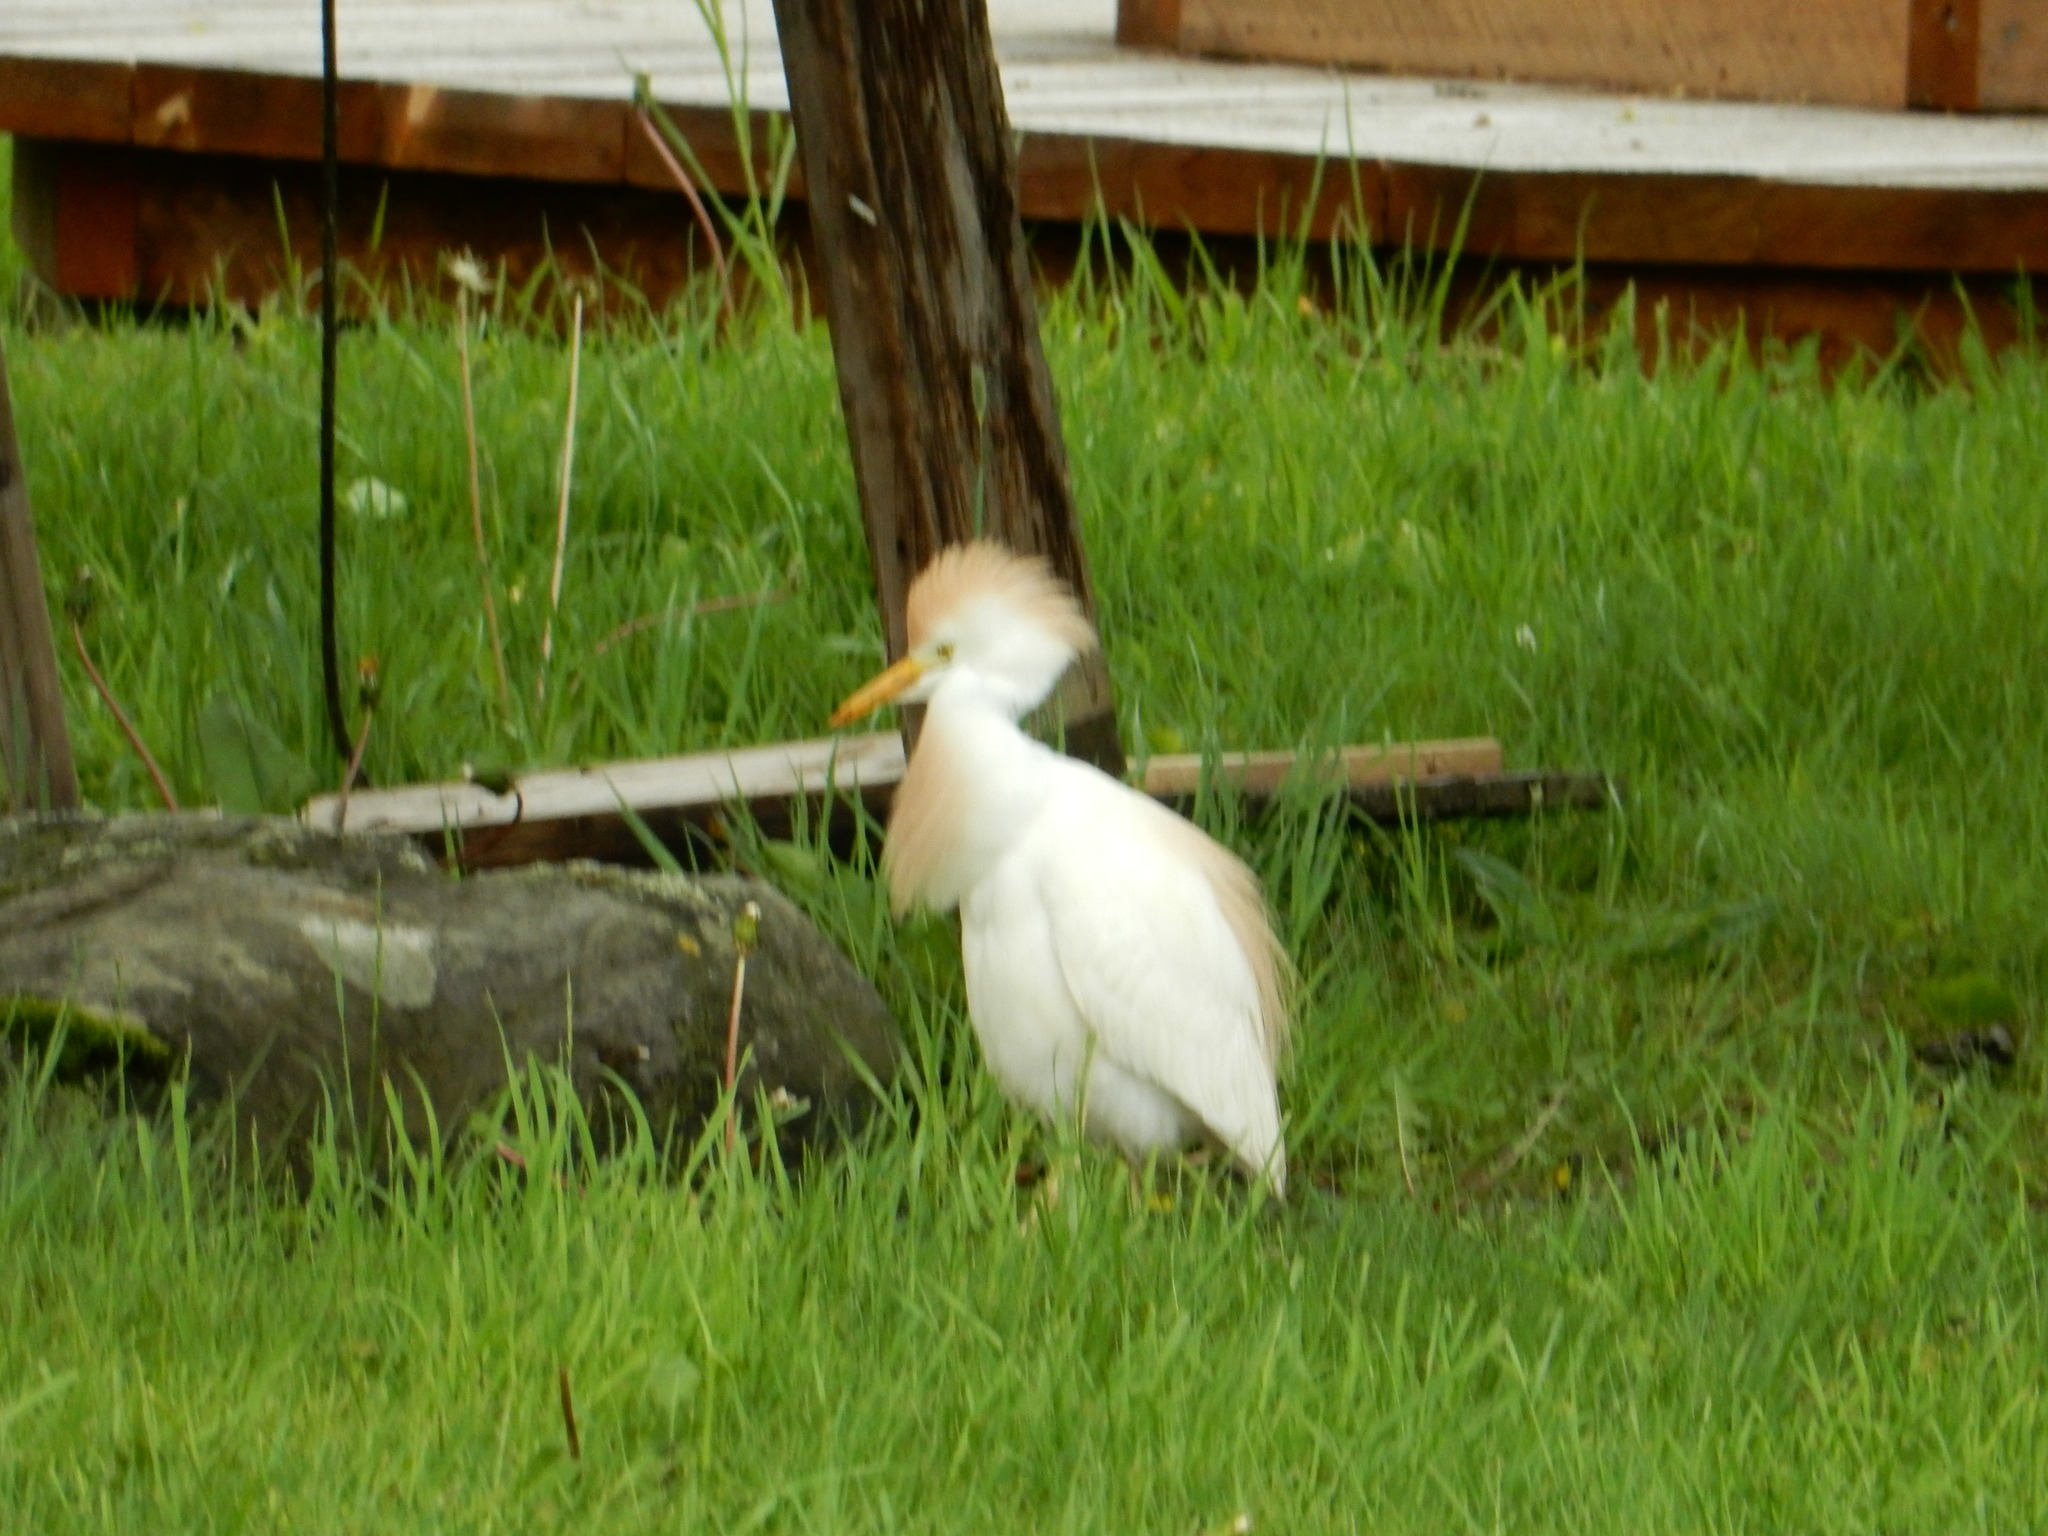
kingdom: Animalia
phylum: Chordata
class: Aves
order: Pelecaniformes
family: Ardeidae
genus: Bubulcus
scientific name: Bubulcus ibis
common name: Cattle egret
